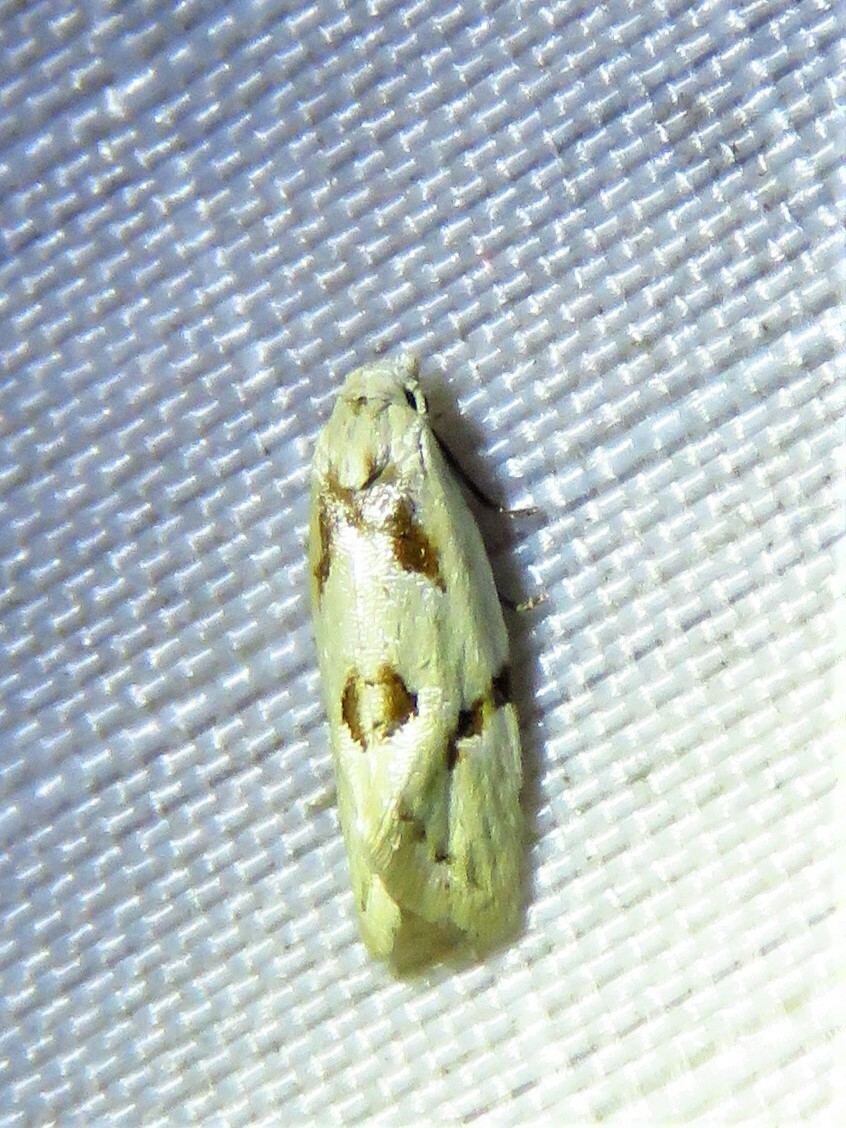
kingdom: Animalia
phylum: Arthropoda
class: Insecta
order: Lepidoptera
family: Tortricidae
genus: Aethes
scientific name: Aethes seriatana
